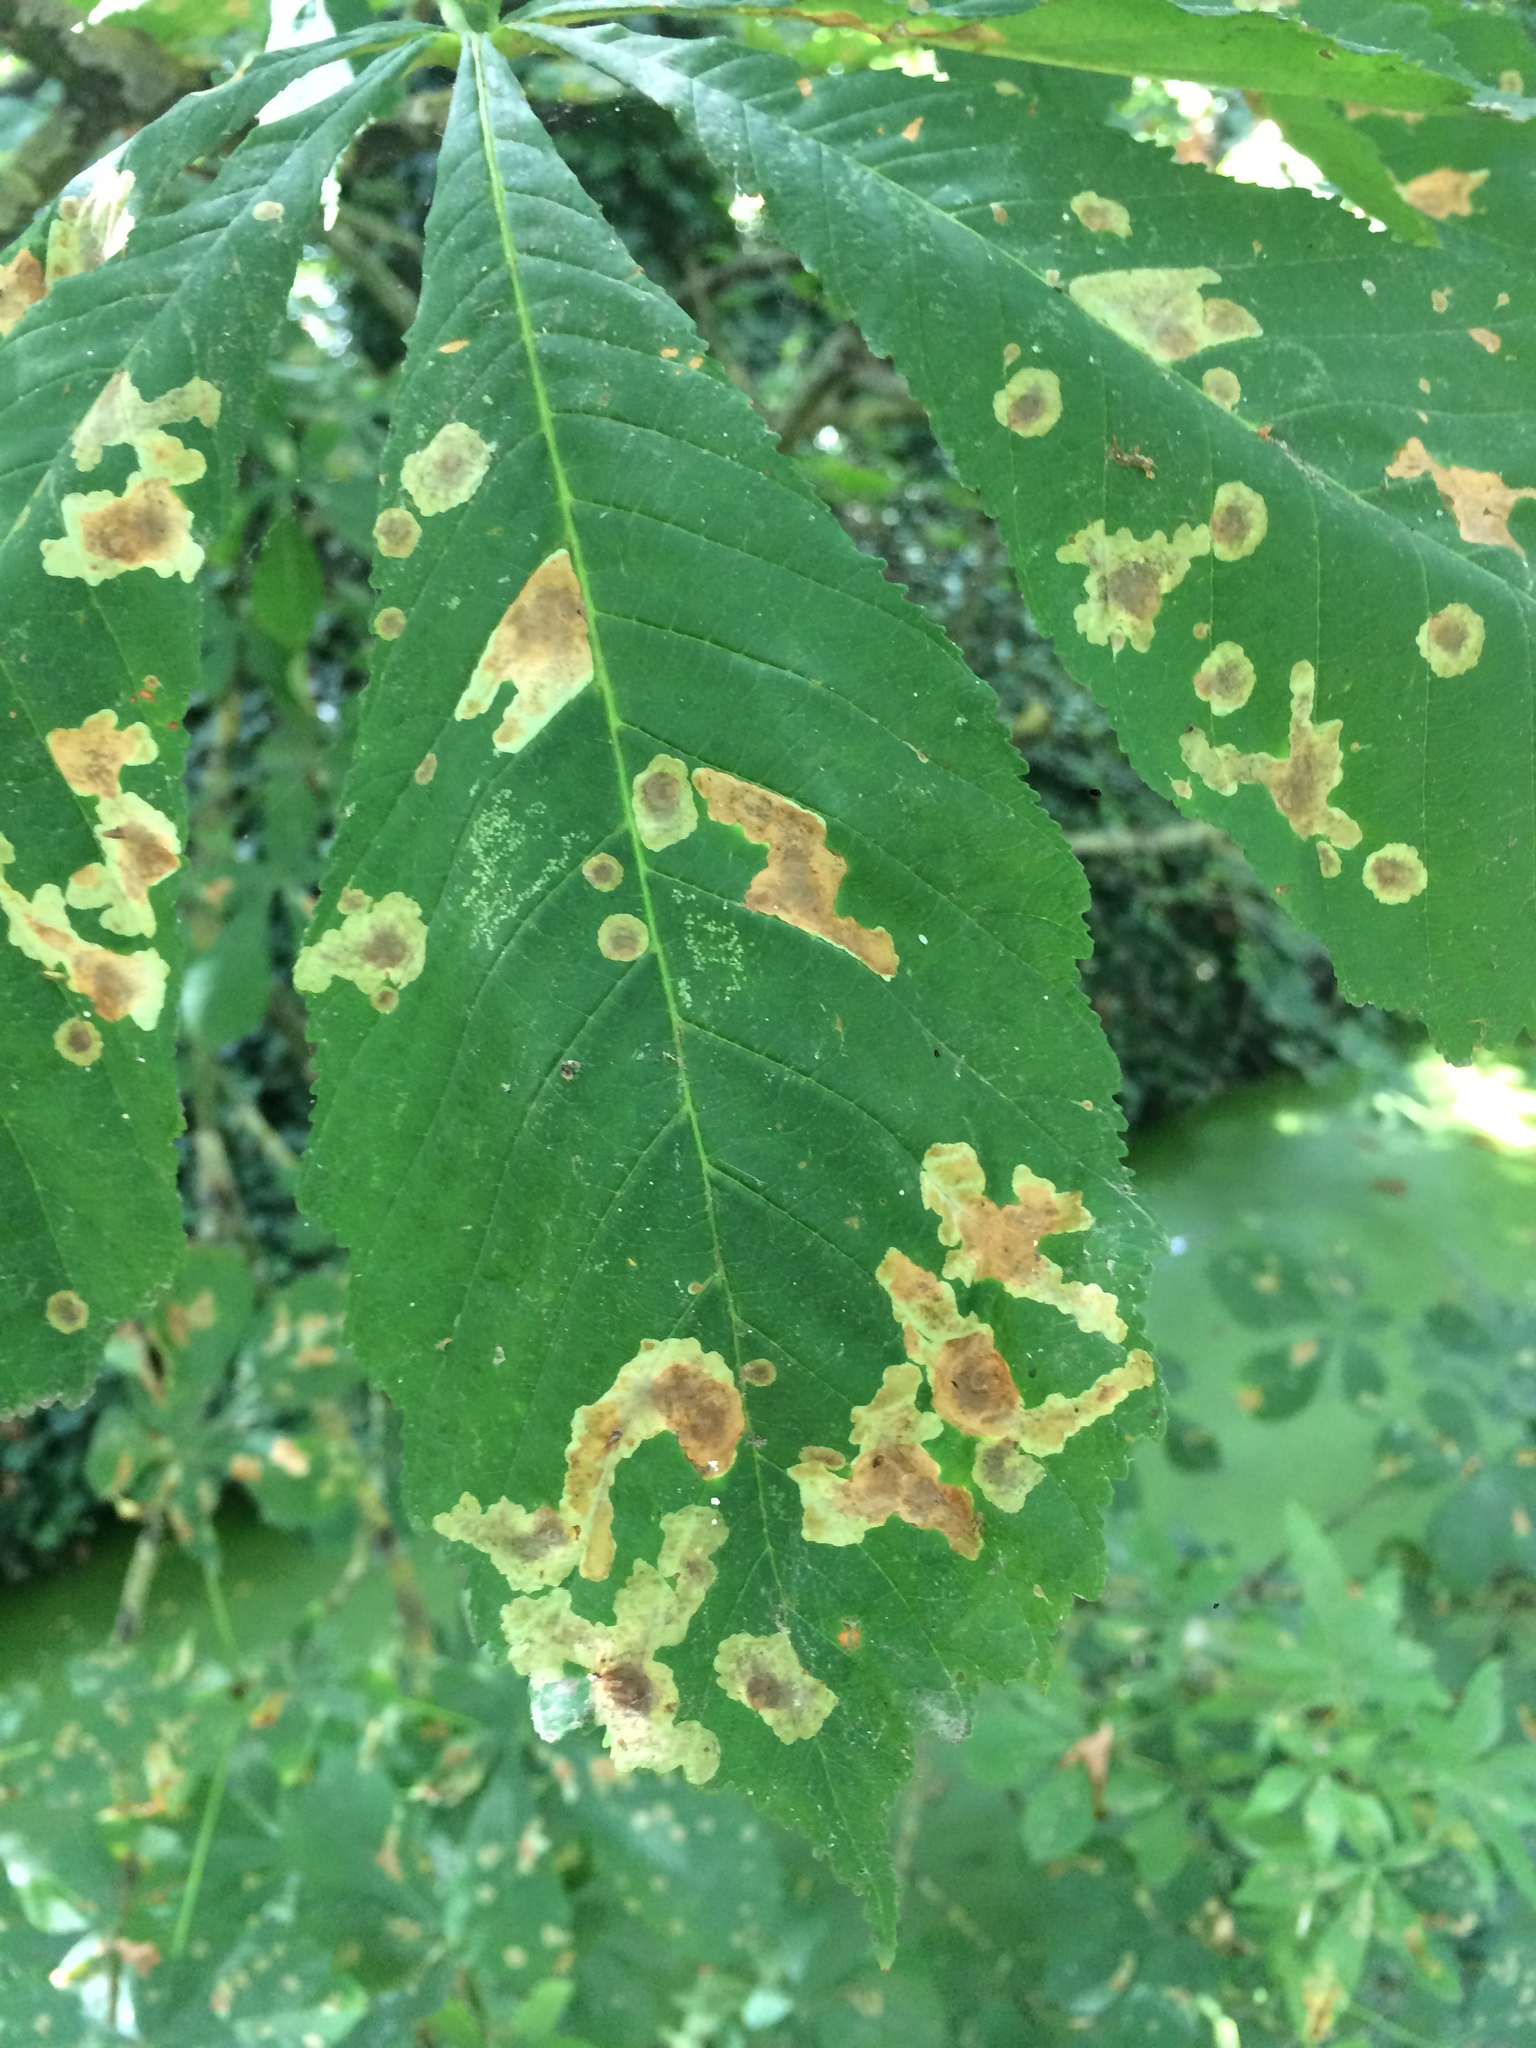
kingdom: Animalia
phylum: Arthropoda
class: Insecta
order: Lepidoptera
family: Gracillariidae
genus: Cameraria
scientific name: Cameraria ohridella
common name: Horse-chestnut leaf-miner
